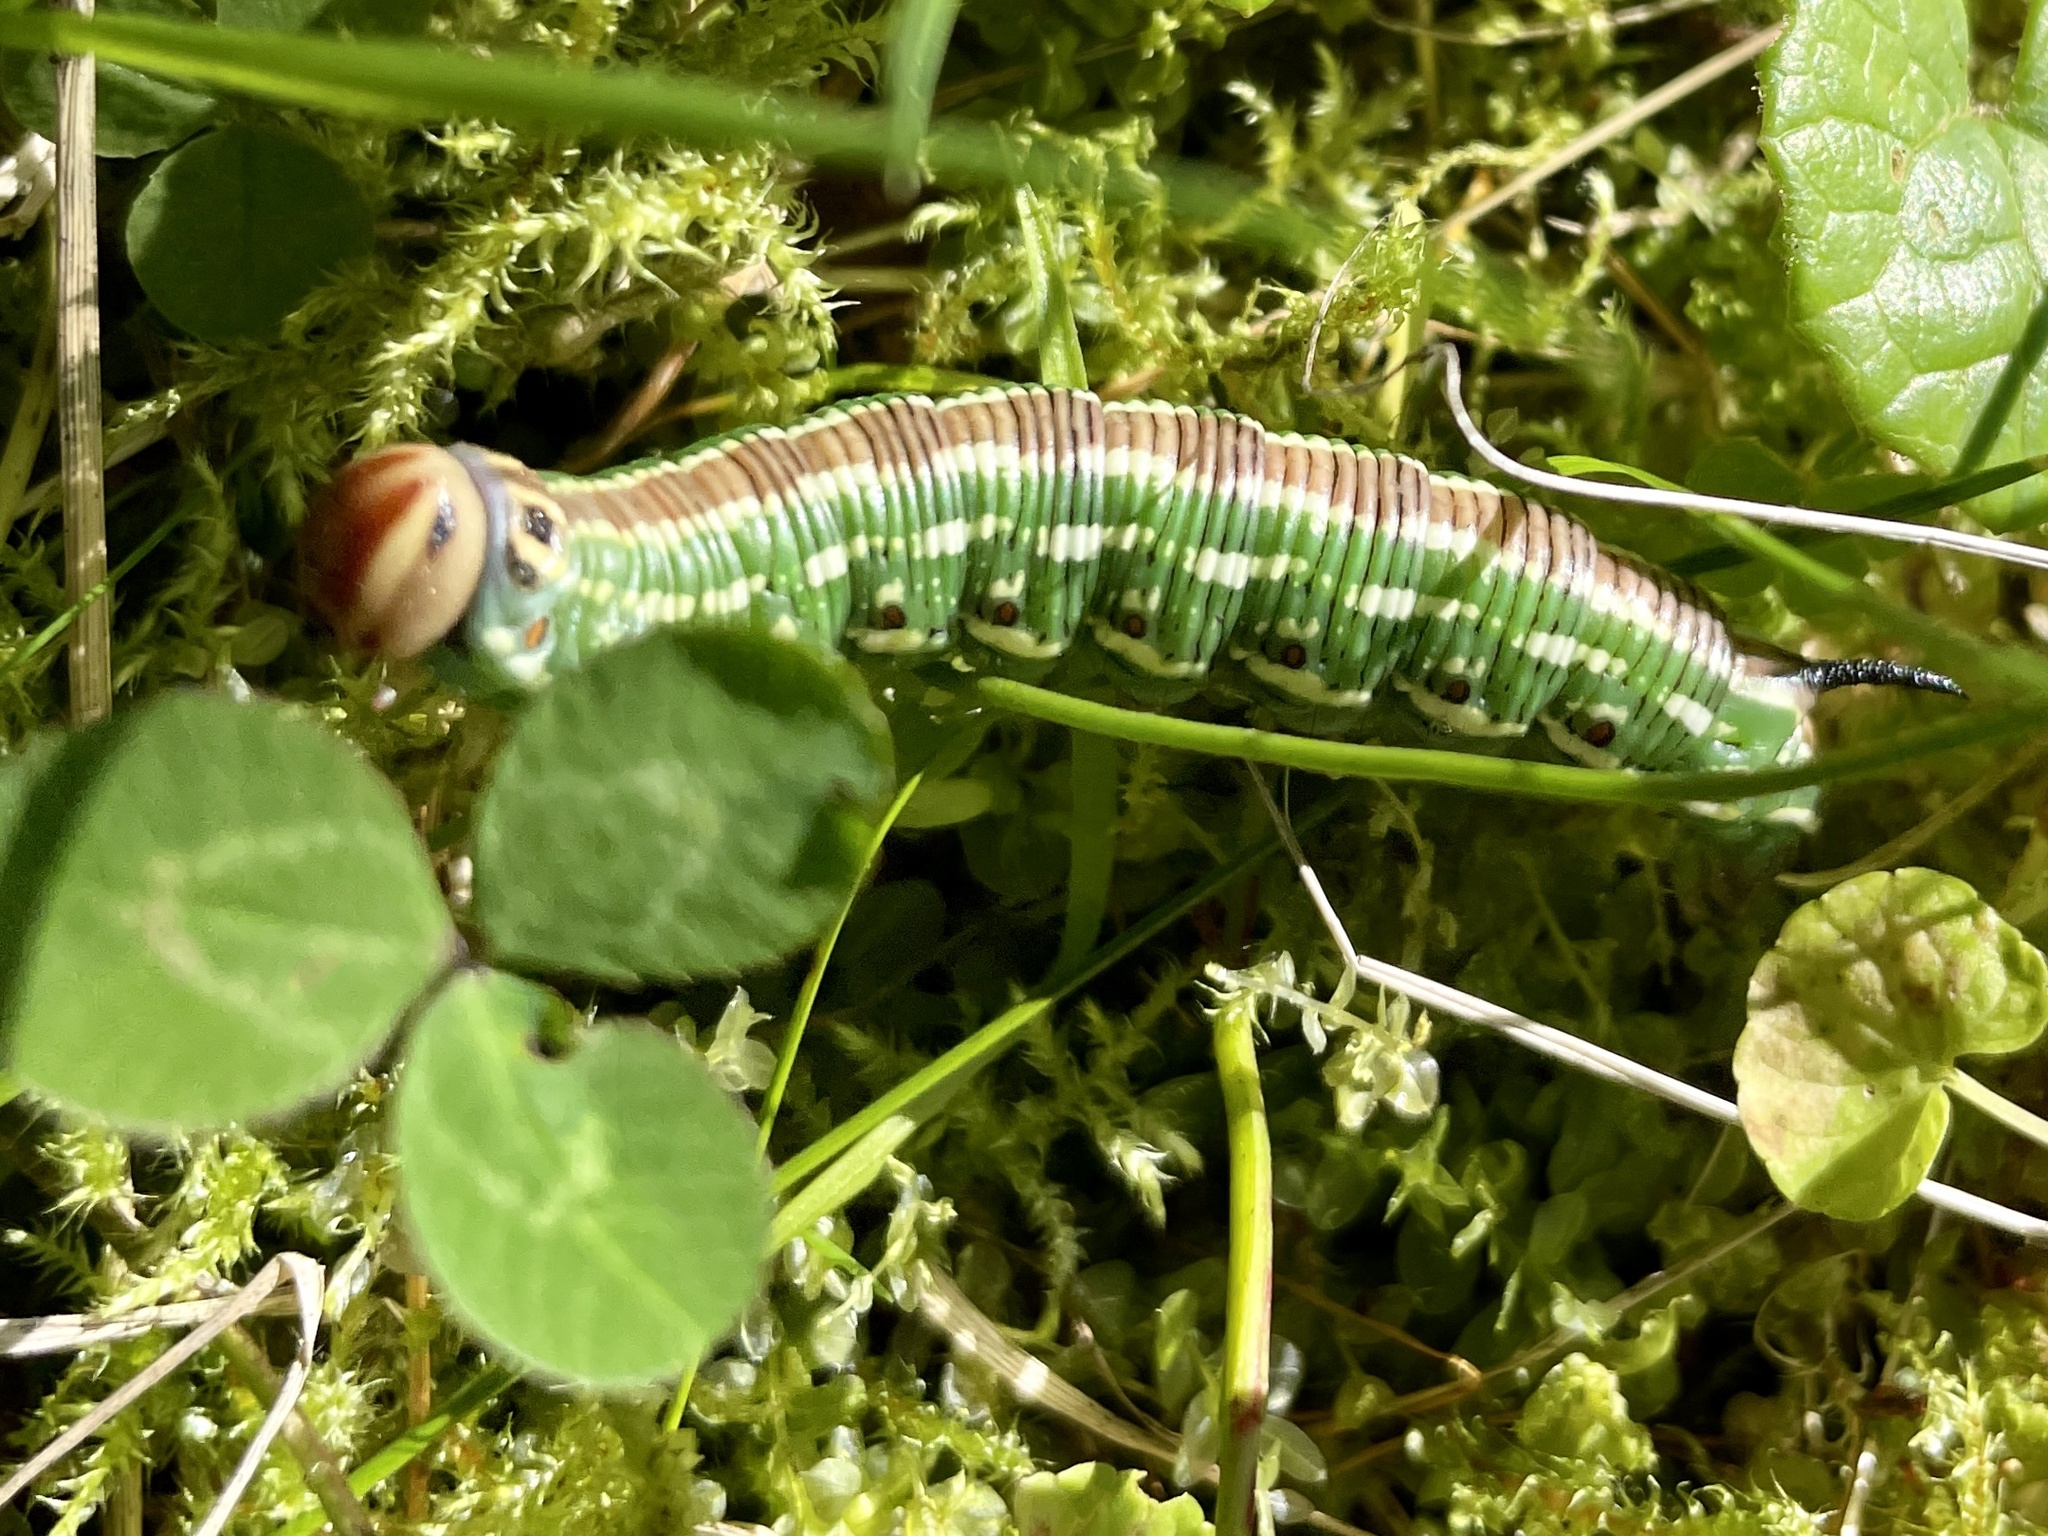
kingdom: Animalia
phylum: Arthropoda
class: Insecta
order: Lepidoptera
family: Sphingidae
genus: Sphinx
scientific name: Sphinx pinastri
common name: Pine hawk-moth
